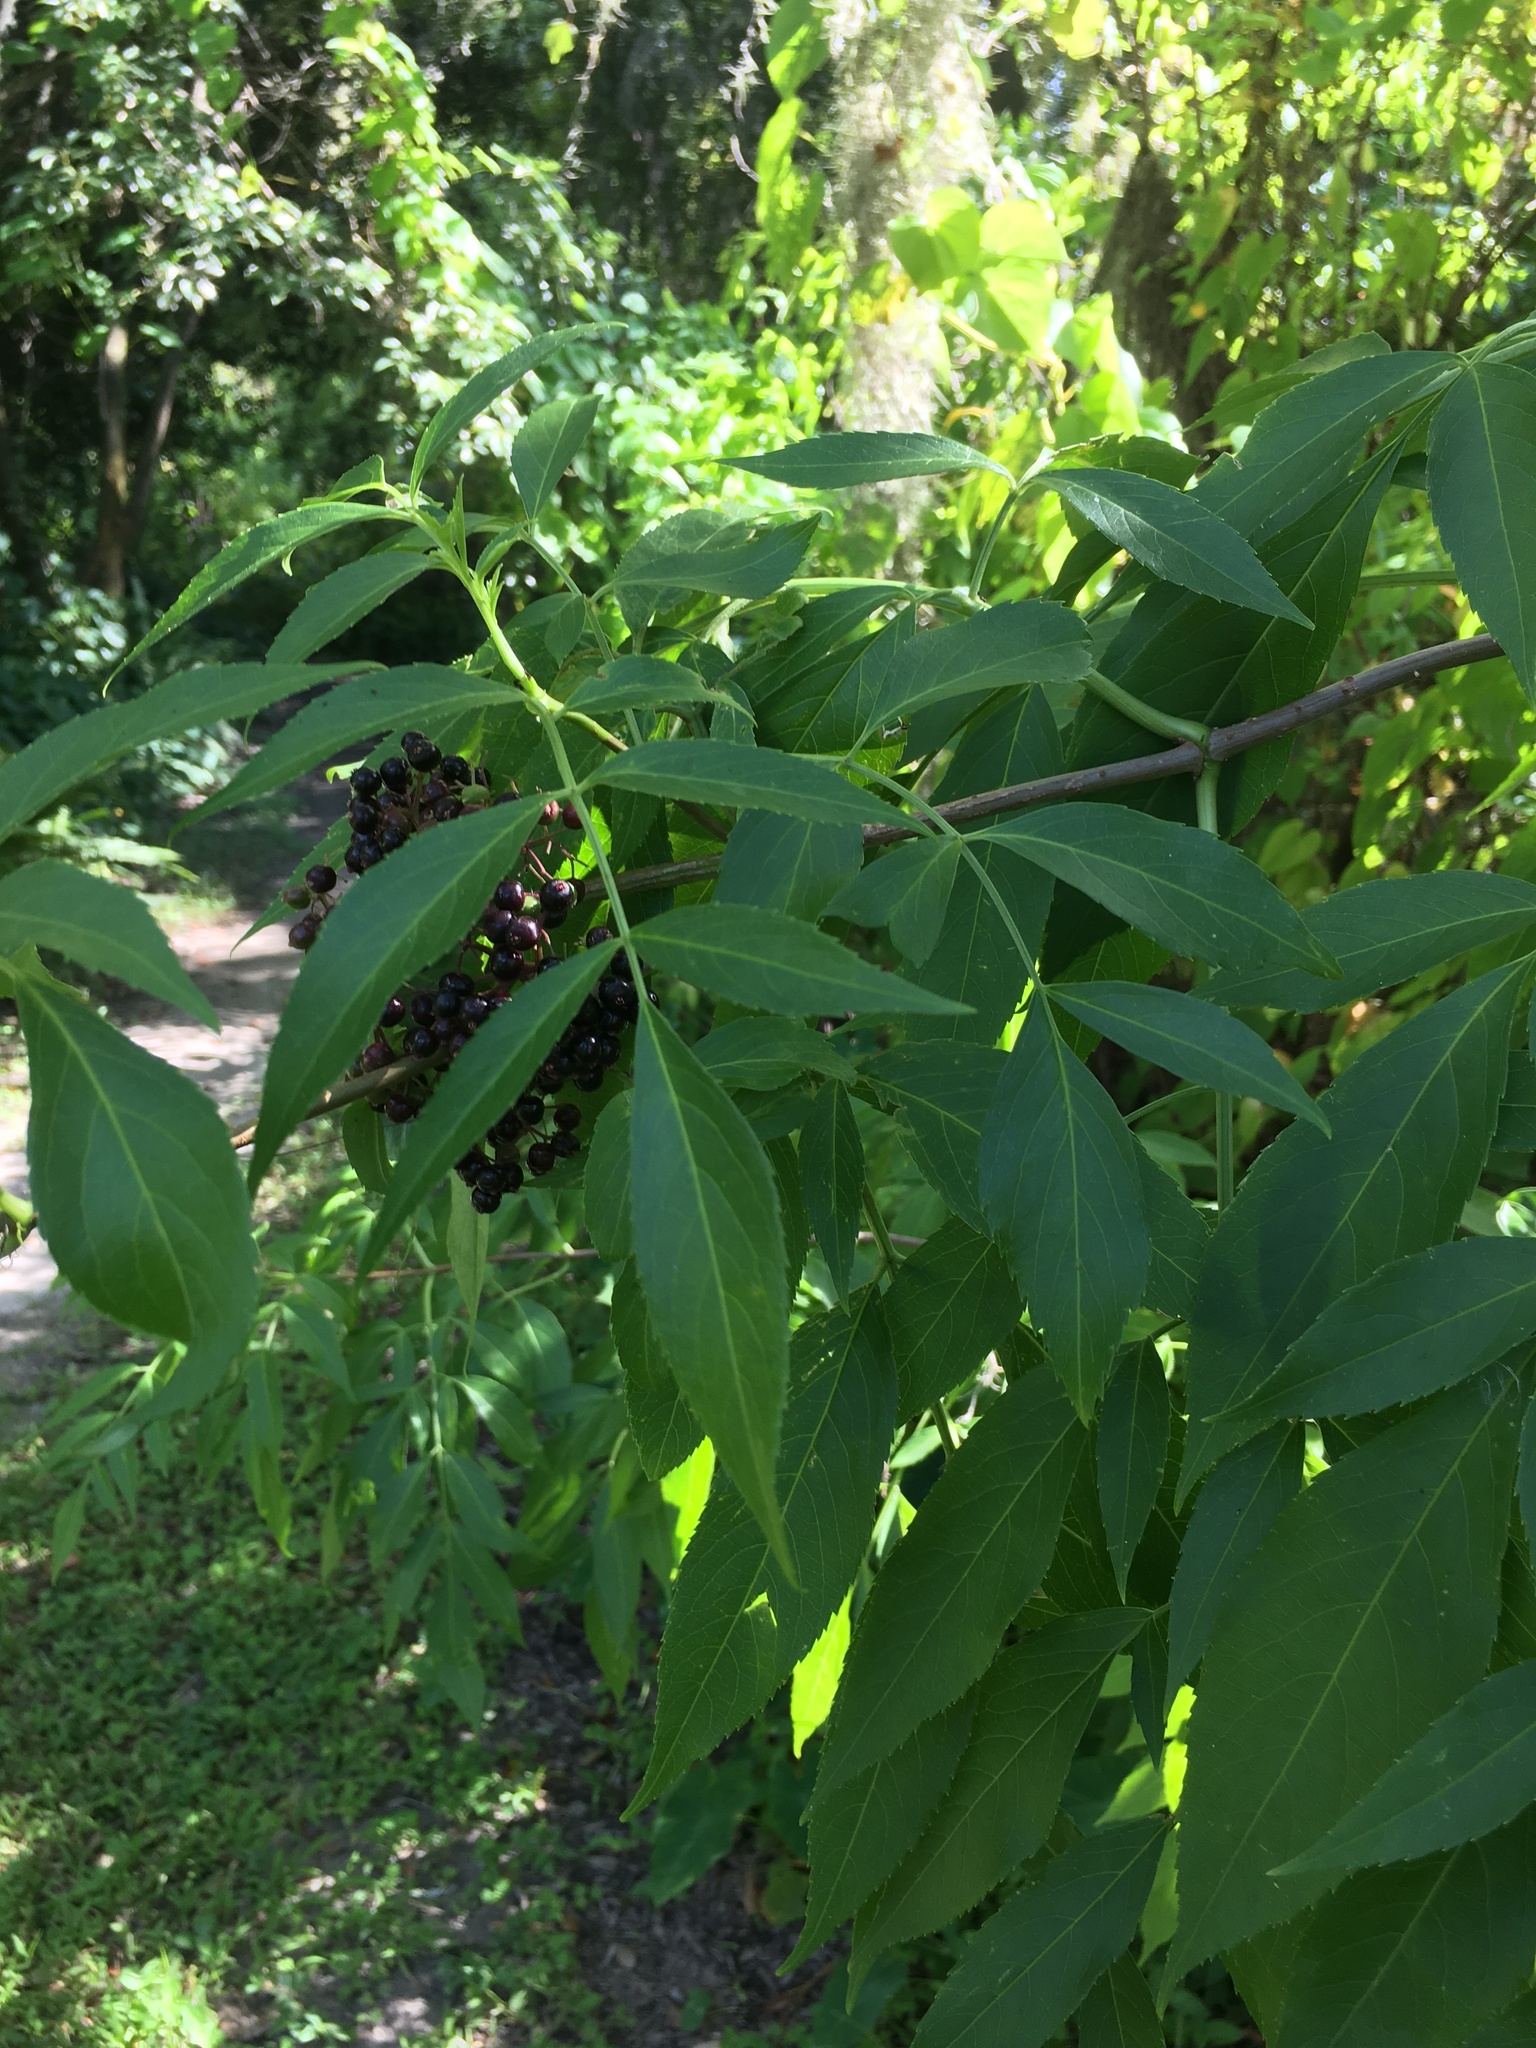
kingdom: Plantae
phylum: Tracheophyta
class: Magnoliopsida
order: Dipsacales
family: Viburnaceae
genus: Sambucus
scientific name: Sambucus canadensis
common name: American elder
